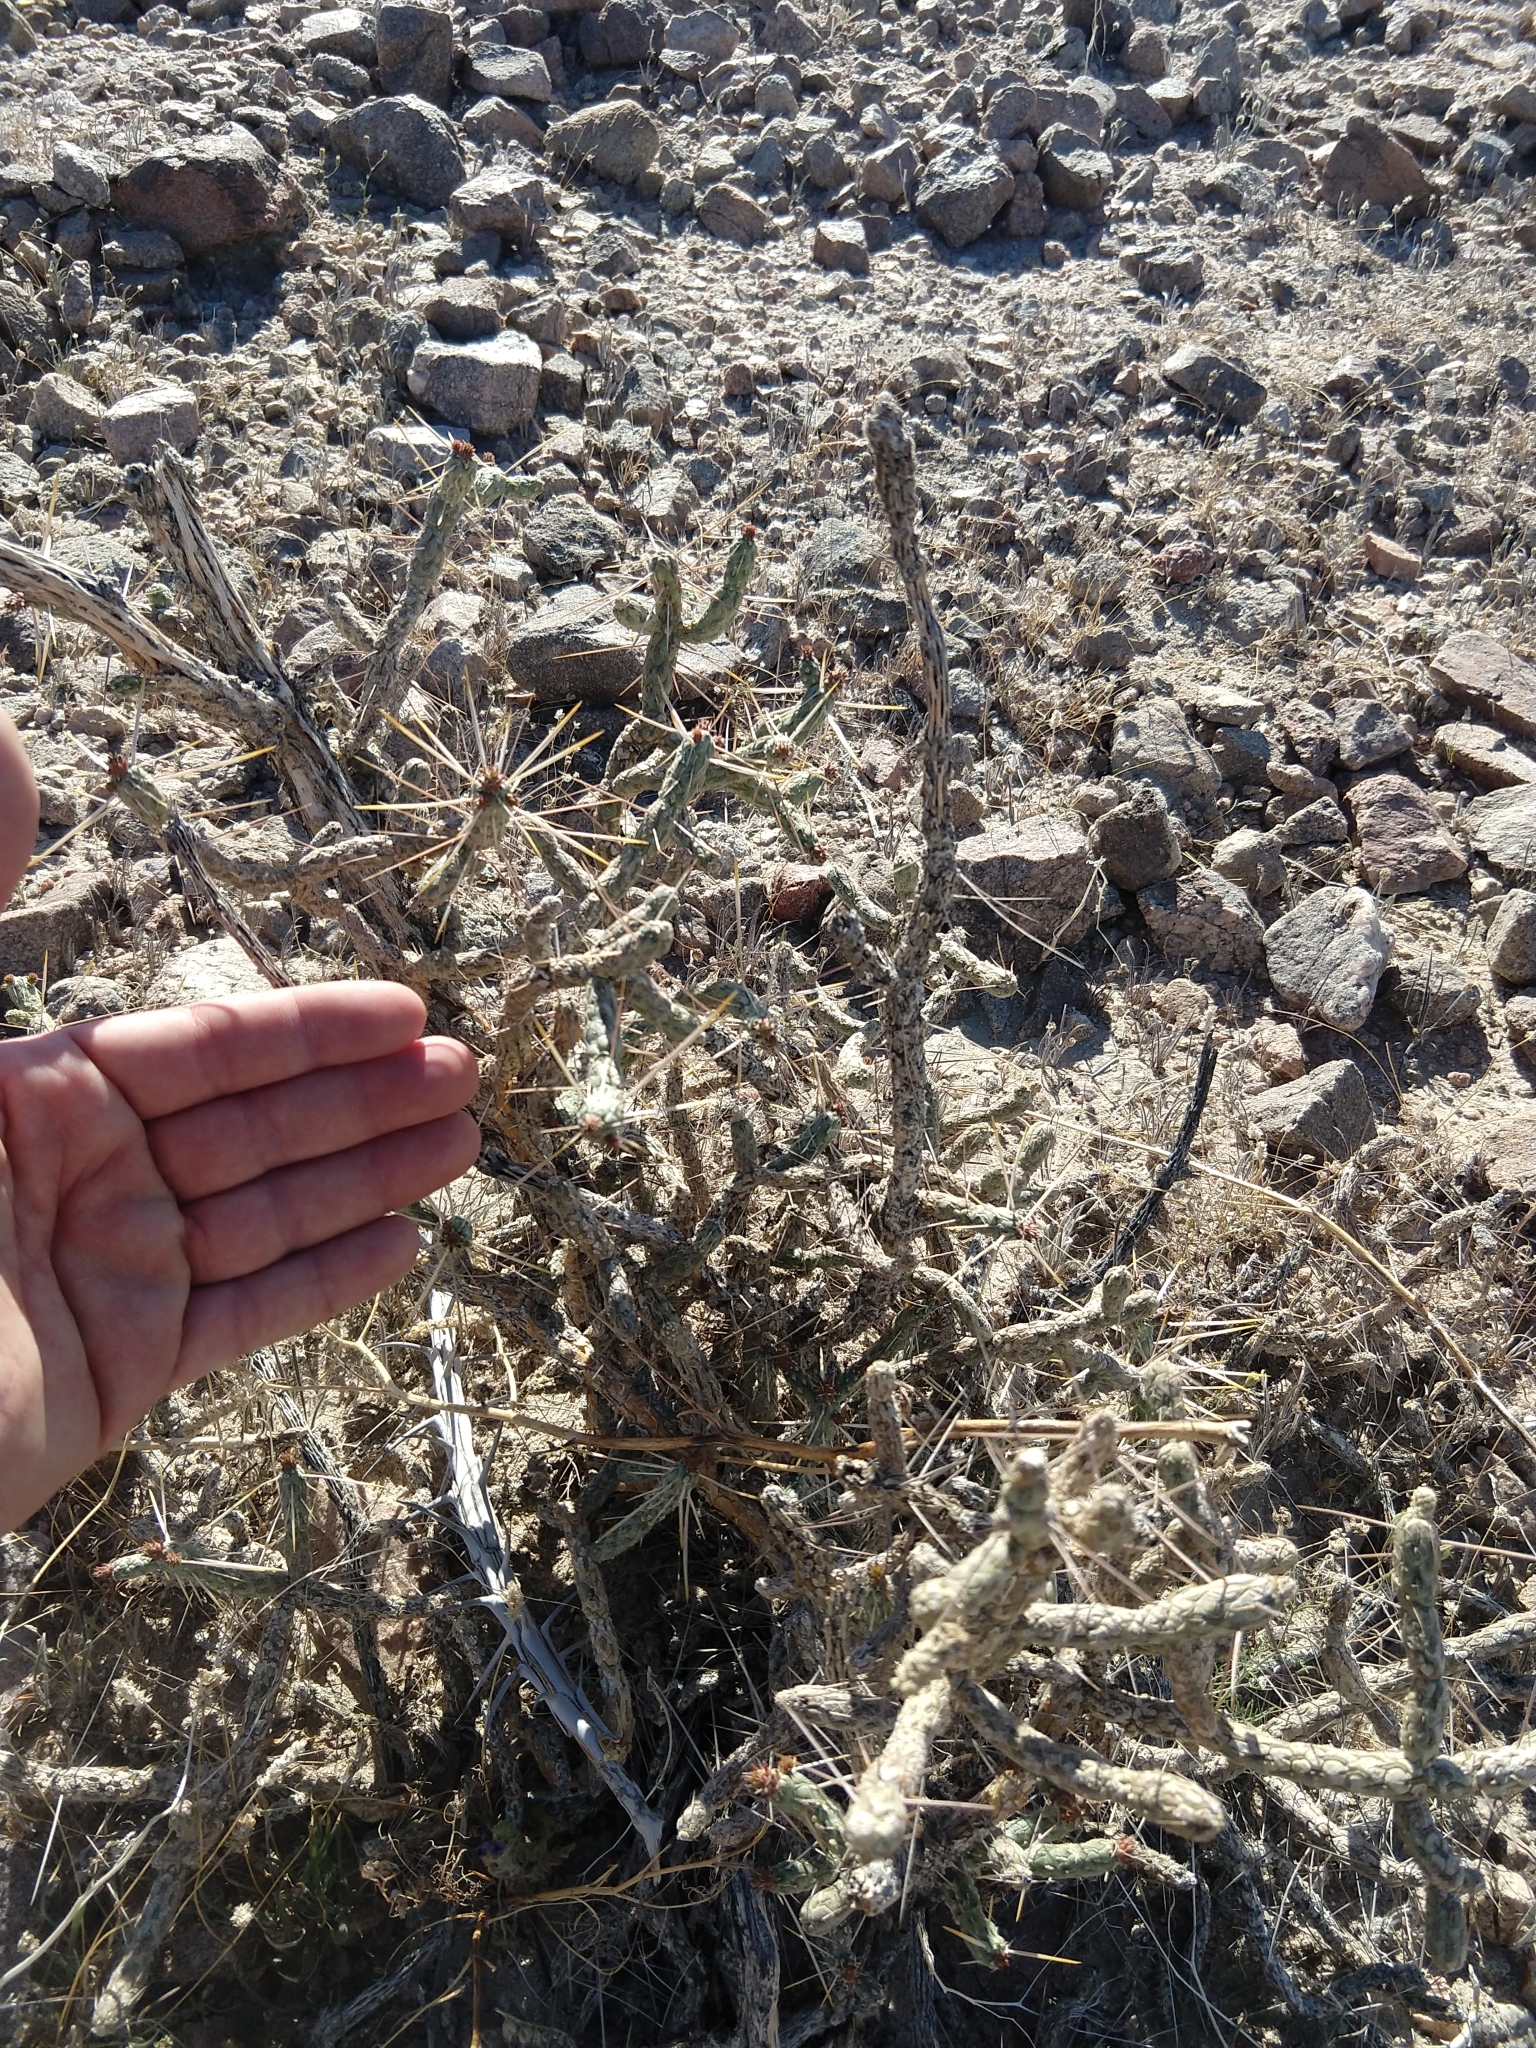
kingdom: Plantae
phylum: Tracheophyta
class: Magnoliopsida
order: Caryophyllales
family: Cactaceae
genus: Cylindropuntia
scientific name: Cylindropuntia ramosissima
